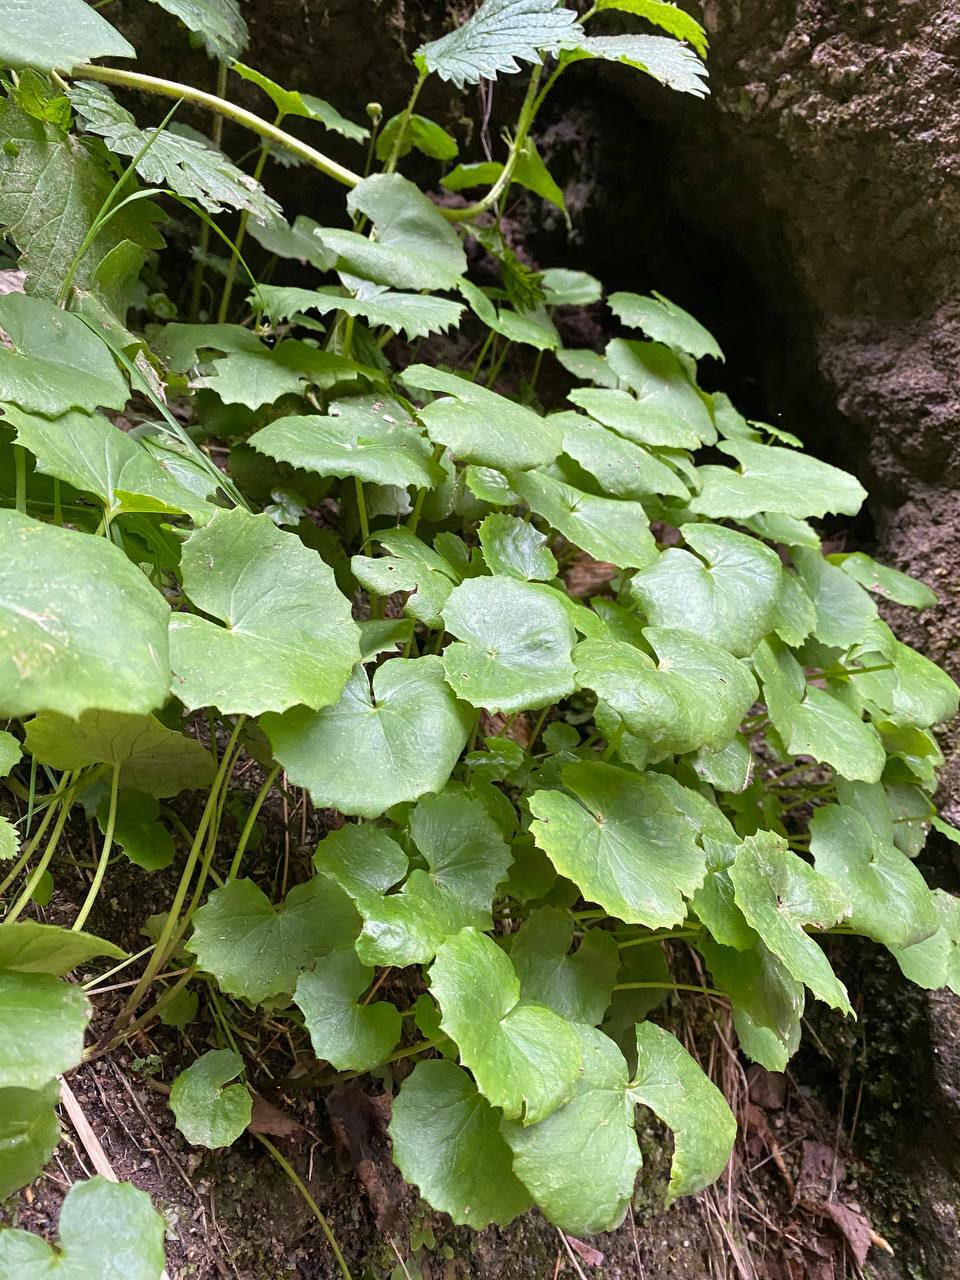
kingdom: Plantae
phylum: Tracheophyta
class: Magnoliopsida
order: Asterales
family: Asteraceae
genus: Dolichorrhiza
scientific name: Dolichorrhiza renifolia
